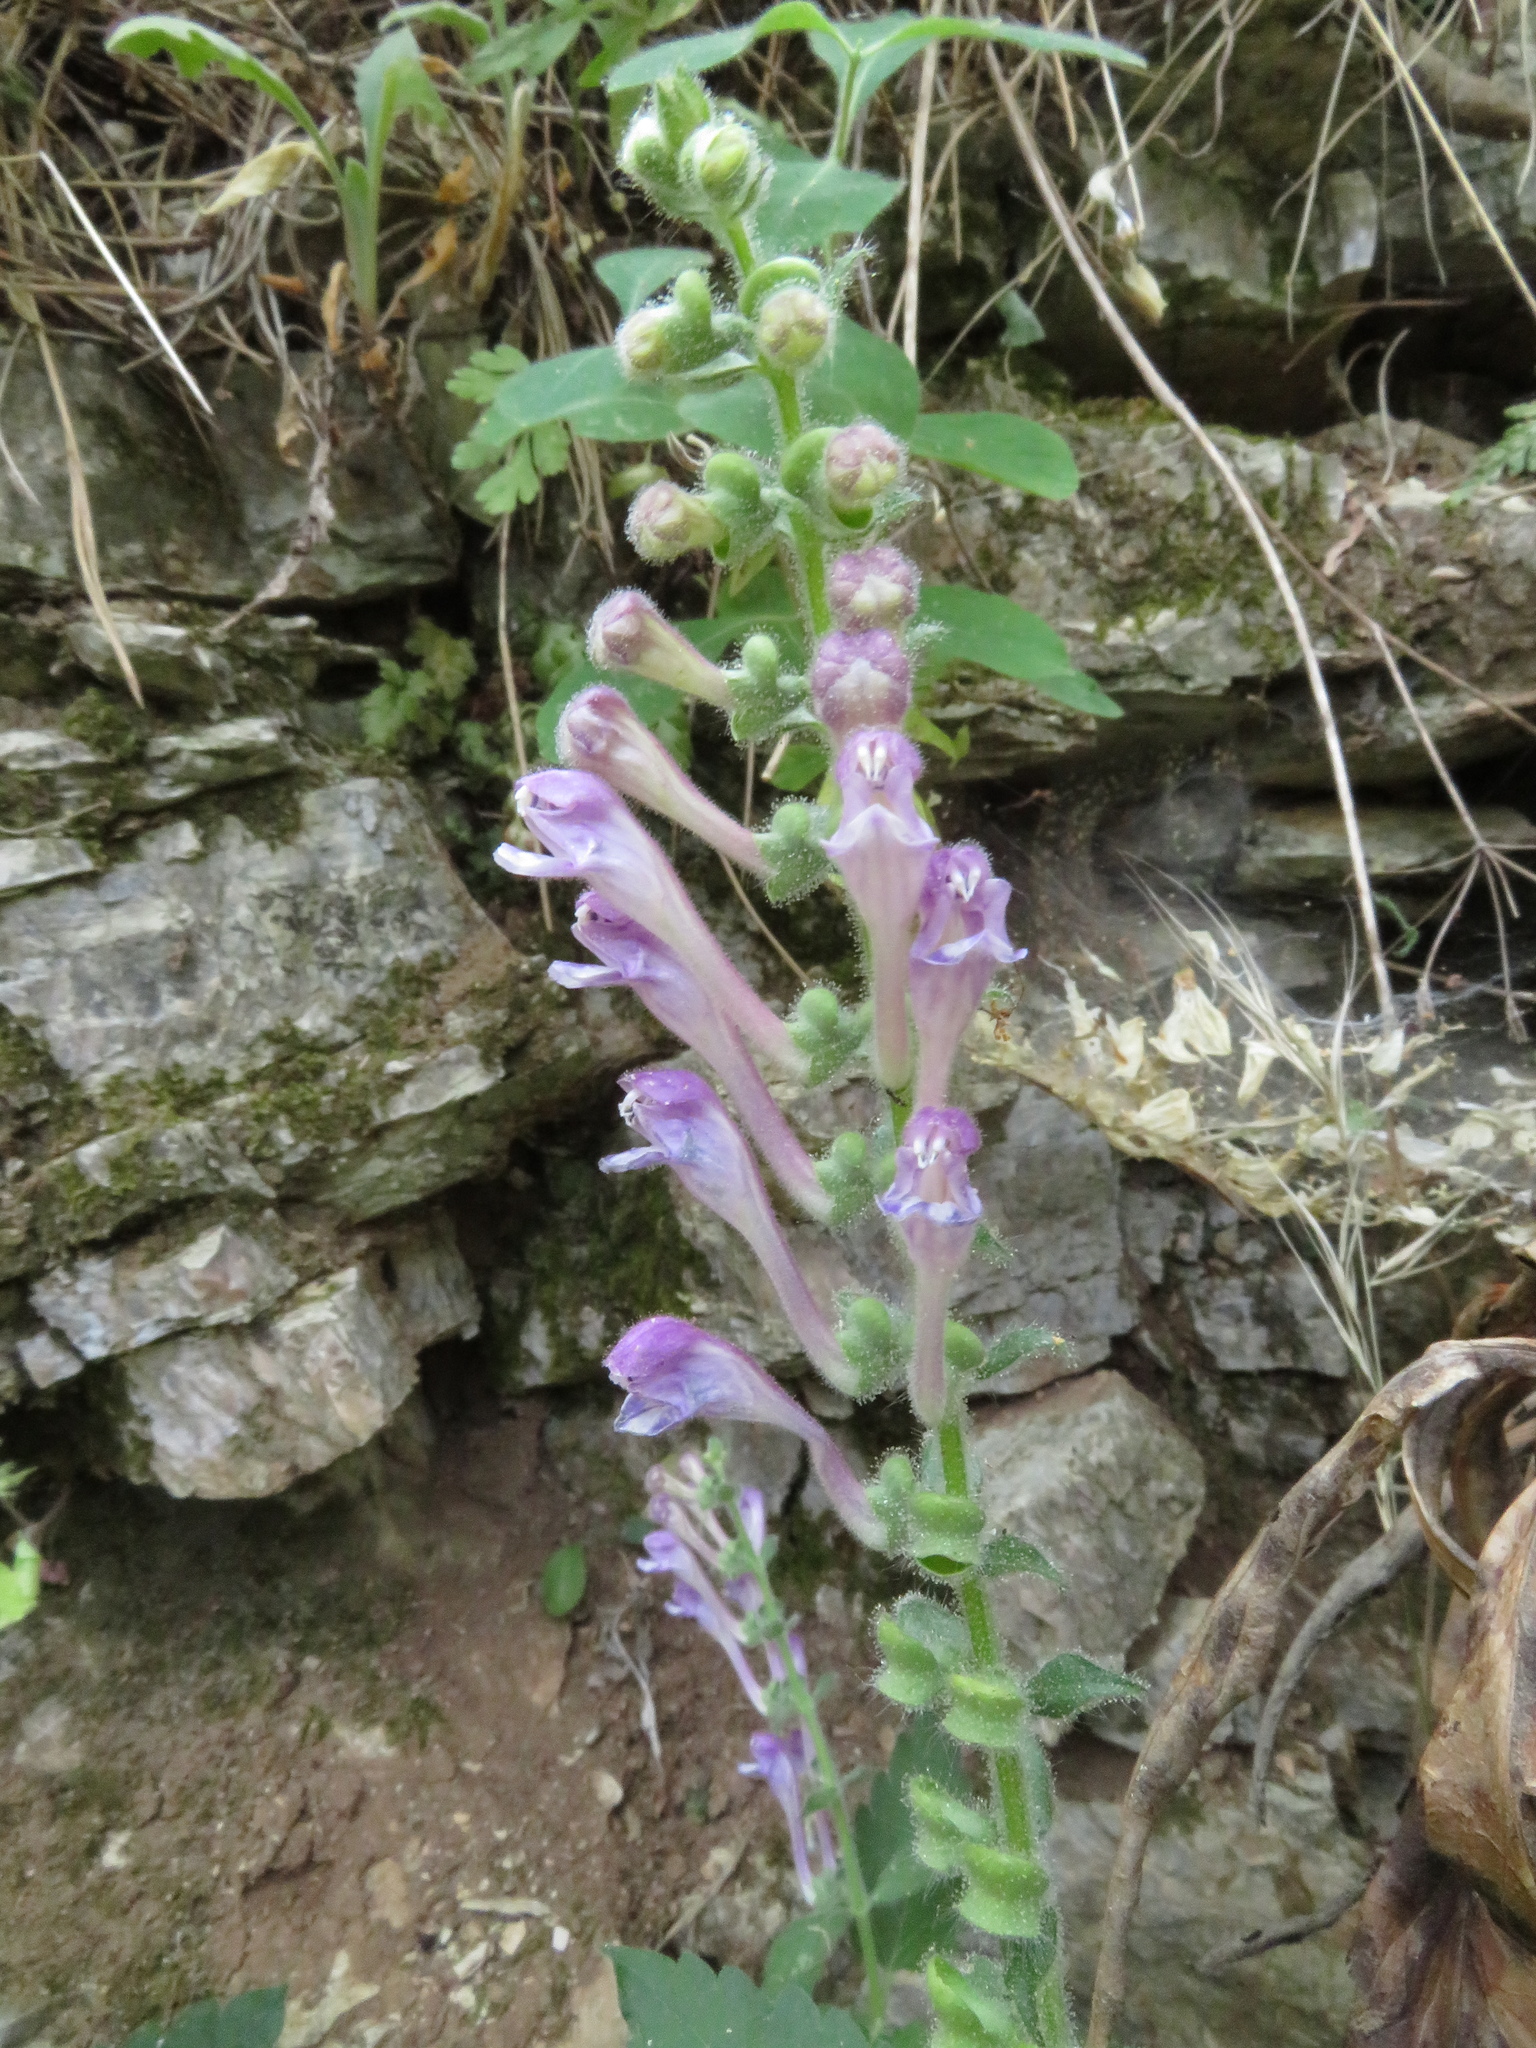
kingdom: Plantae
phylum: Tracheophyta
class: Magnoliopsida
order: Lamiales
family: Lamiaceae
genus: Scutellaria
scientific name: Scutellaria columnae
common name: Large skullcap
